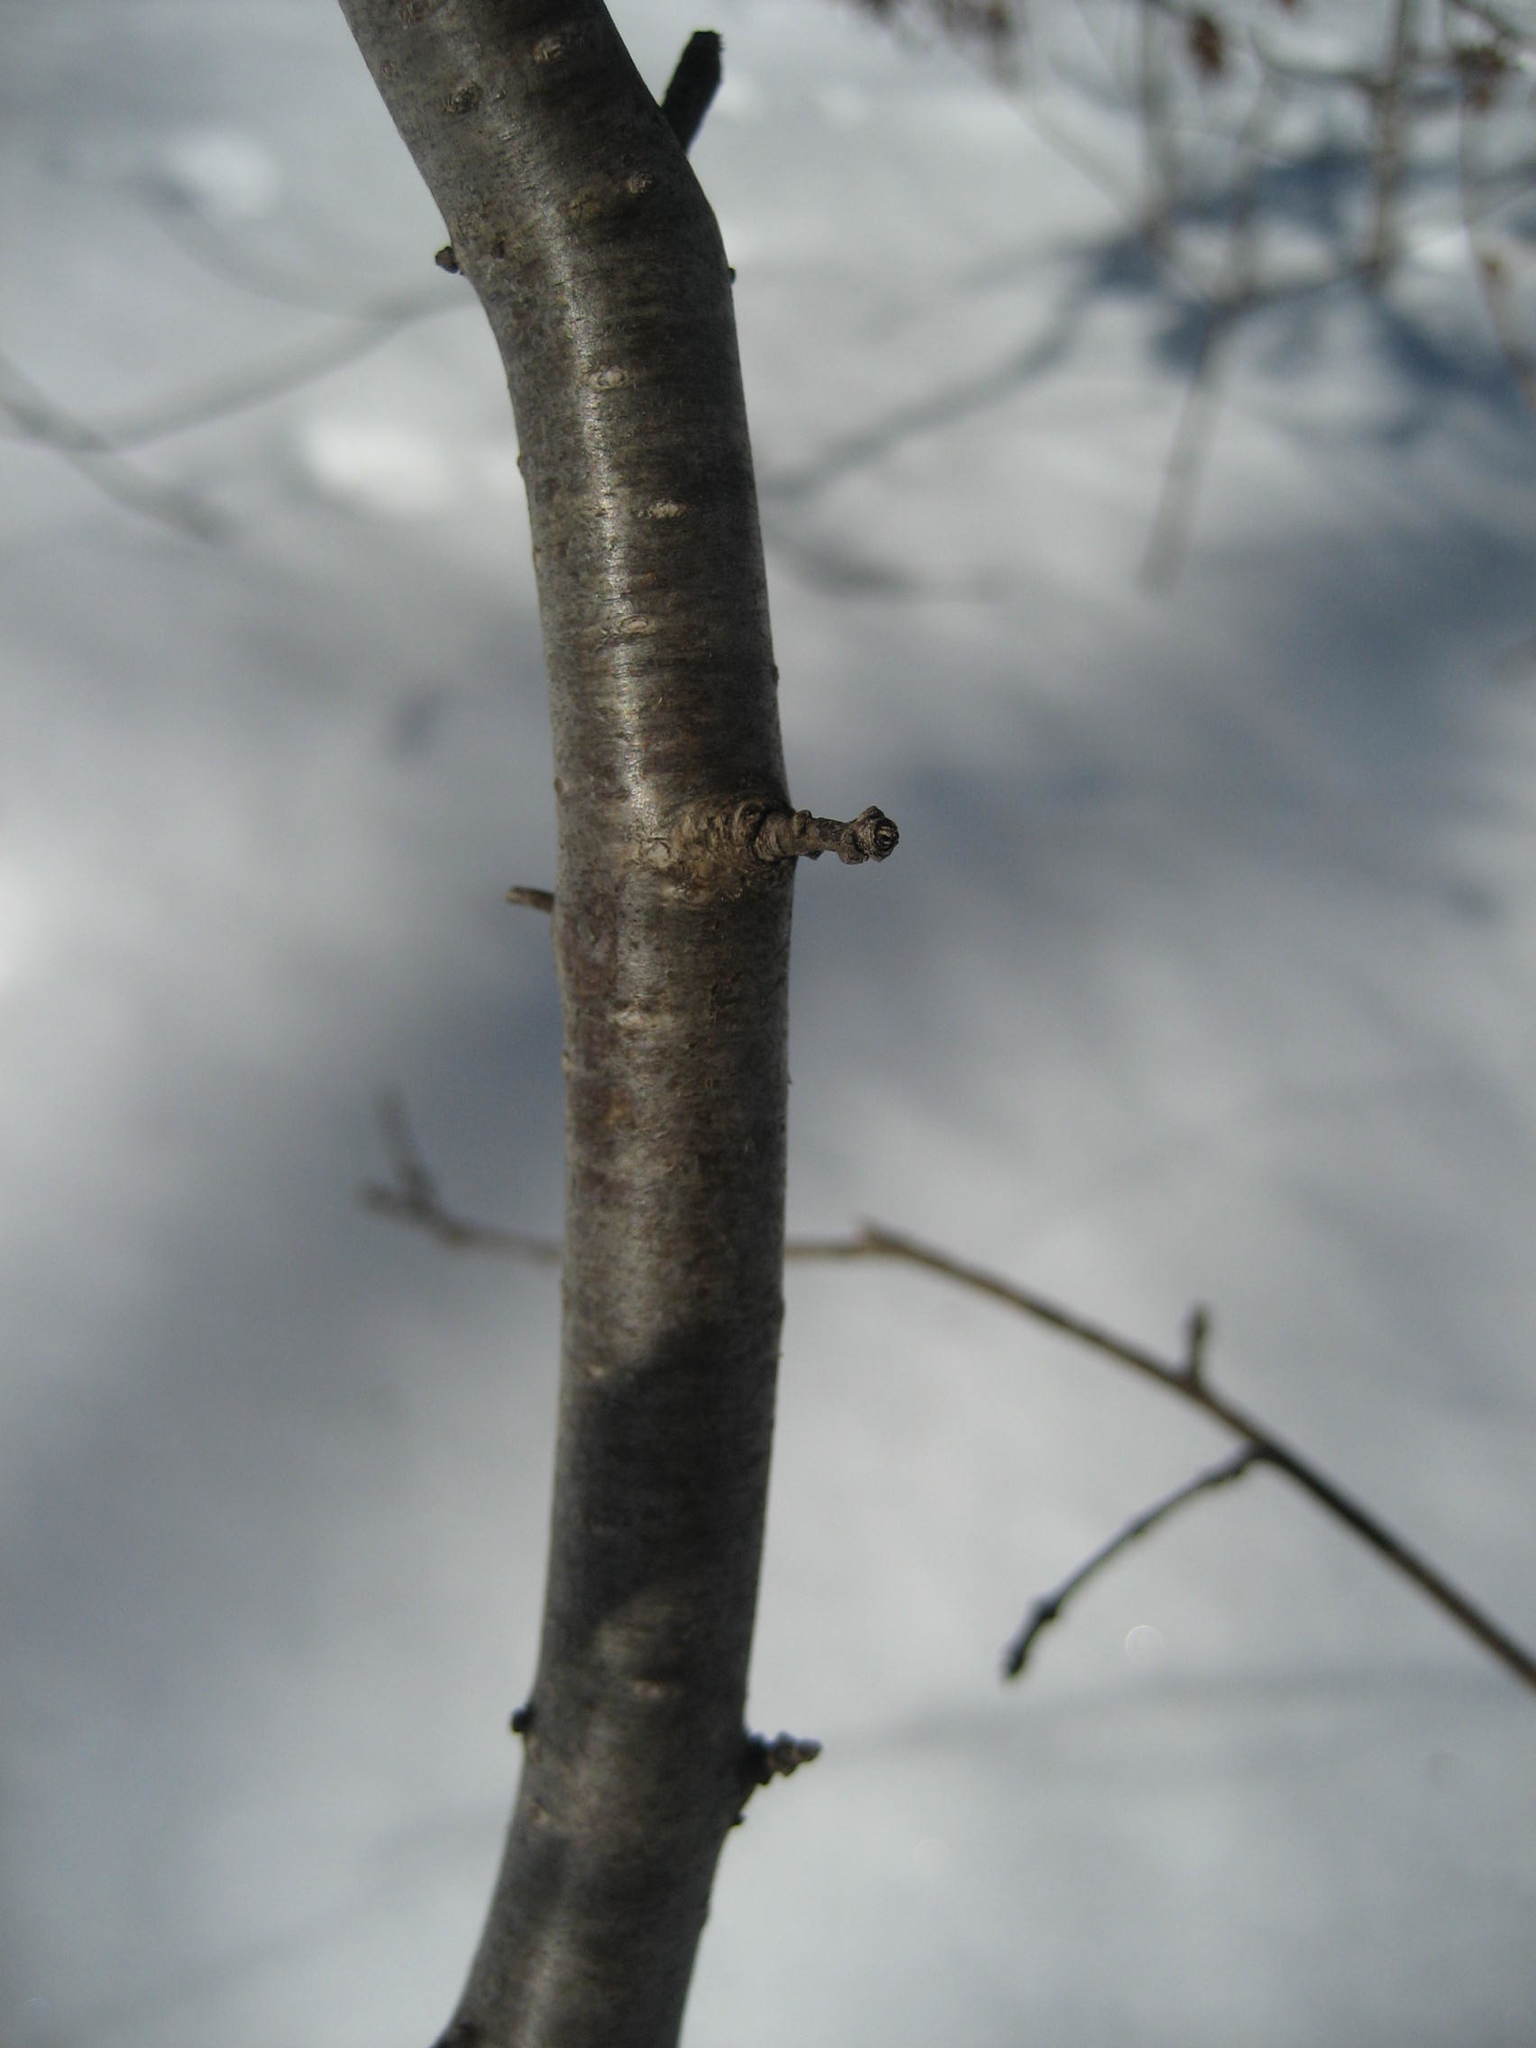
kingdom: Plantae
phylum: Tracheophyta
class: Magnoliopsida
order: Rosales
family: Rhamnaceae
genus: Rhamnus
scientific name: Rhamnus cathartica
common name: Common buckthorn
